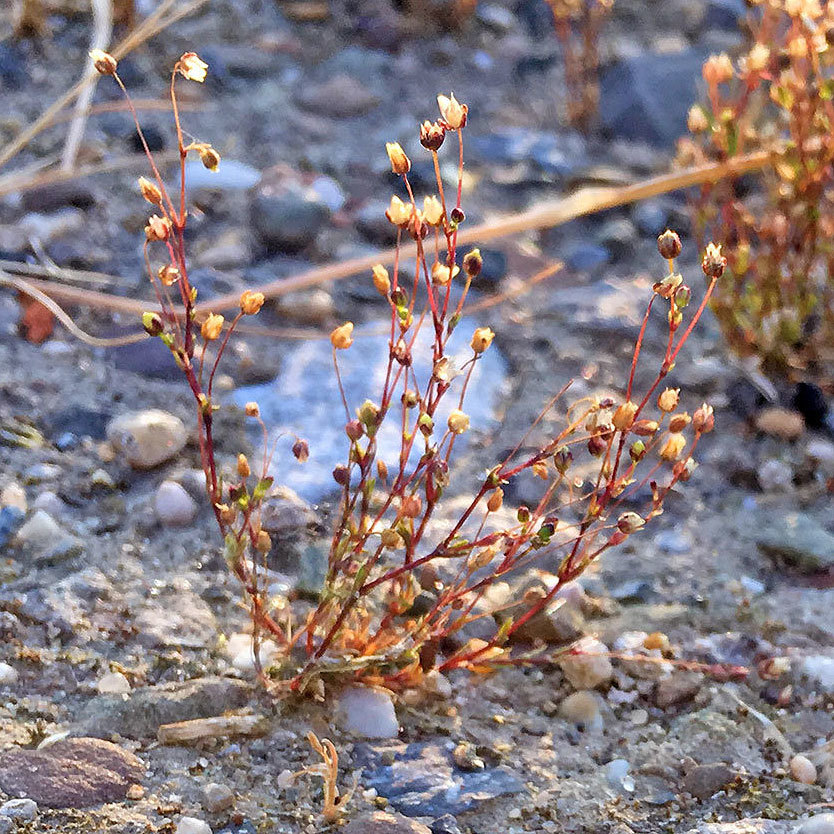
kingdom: Plantae
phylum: Tracheophyta
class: Magnoliopsida
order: Caryophyllales
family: Caryophyllaceae
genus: Sagina
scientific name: Sagina apetala
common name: Annual pearlwort
